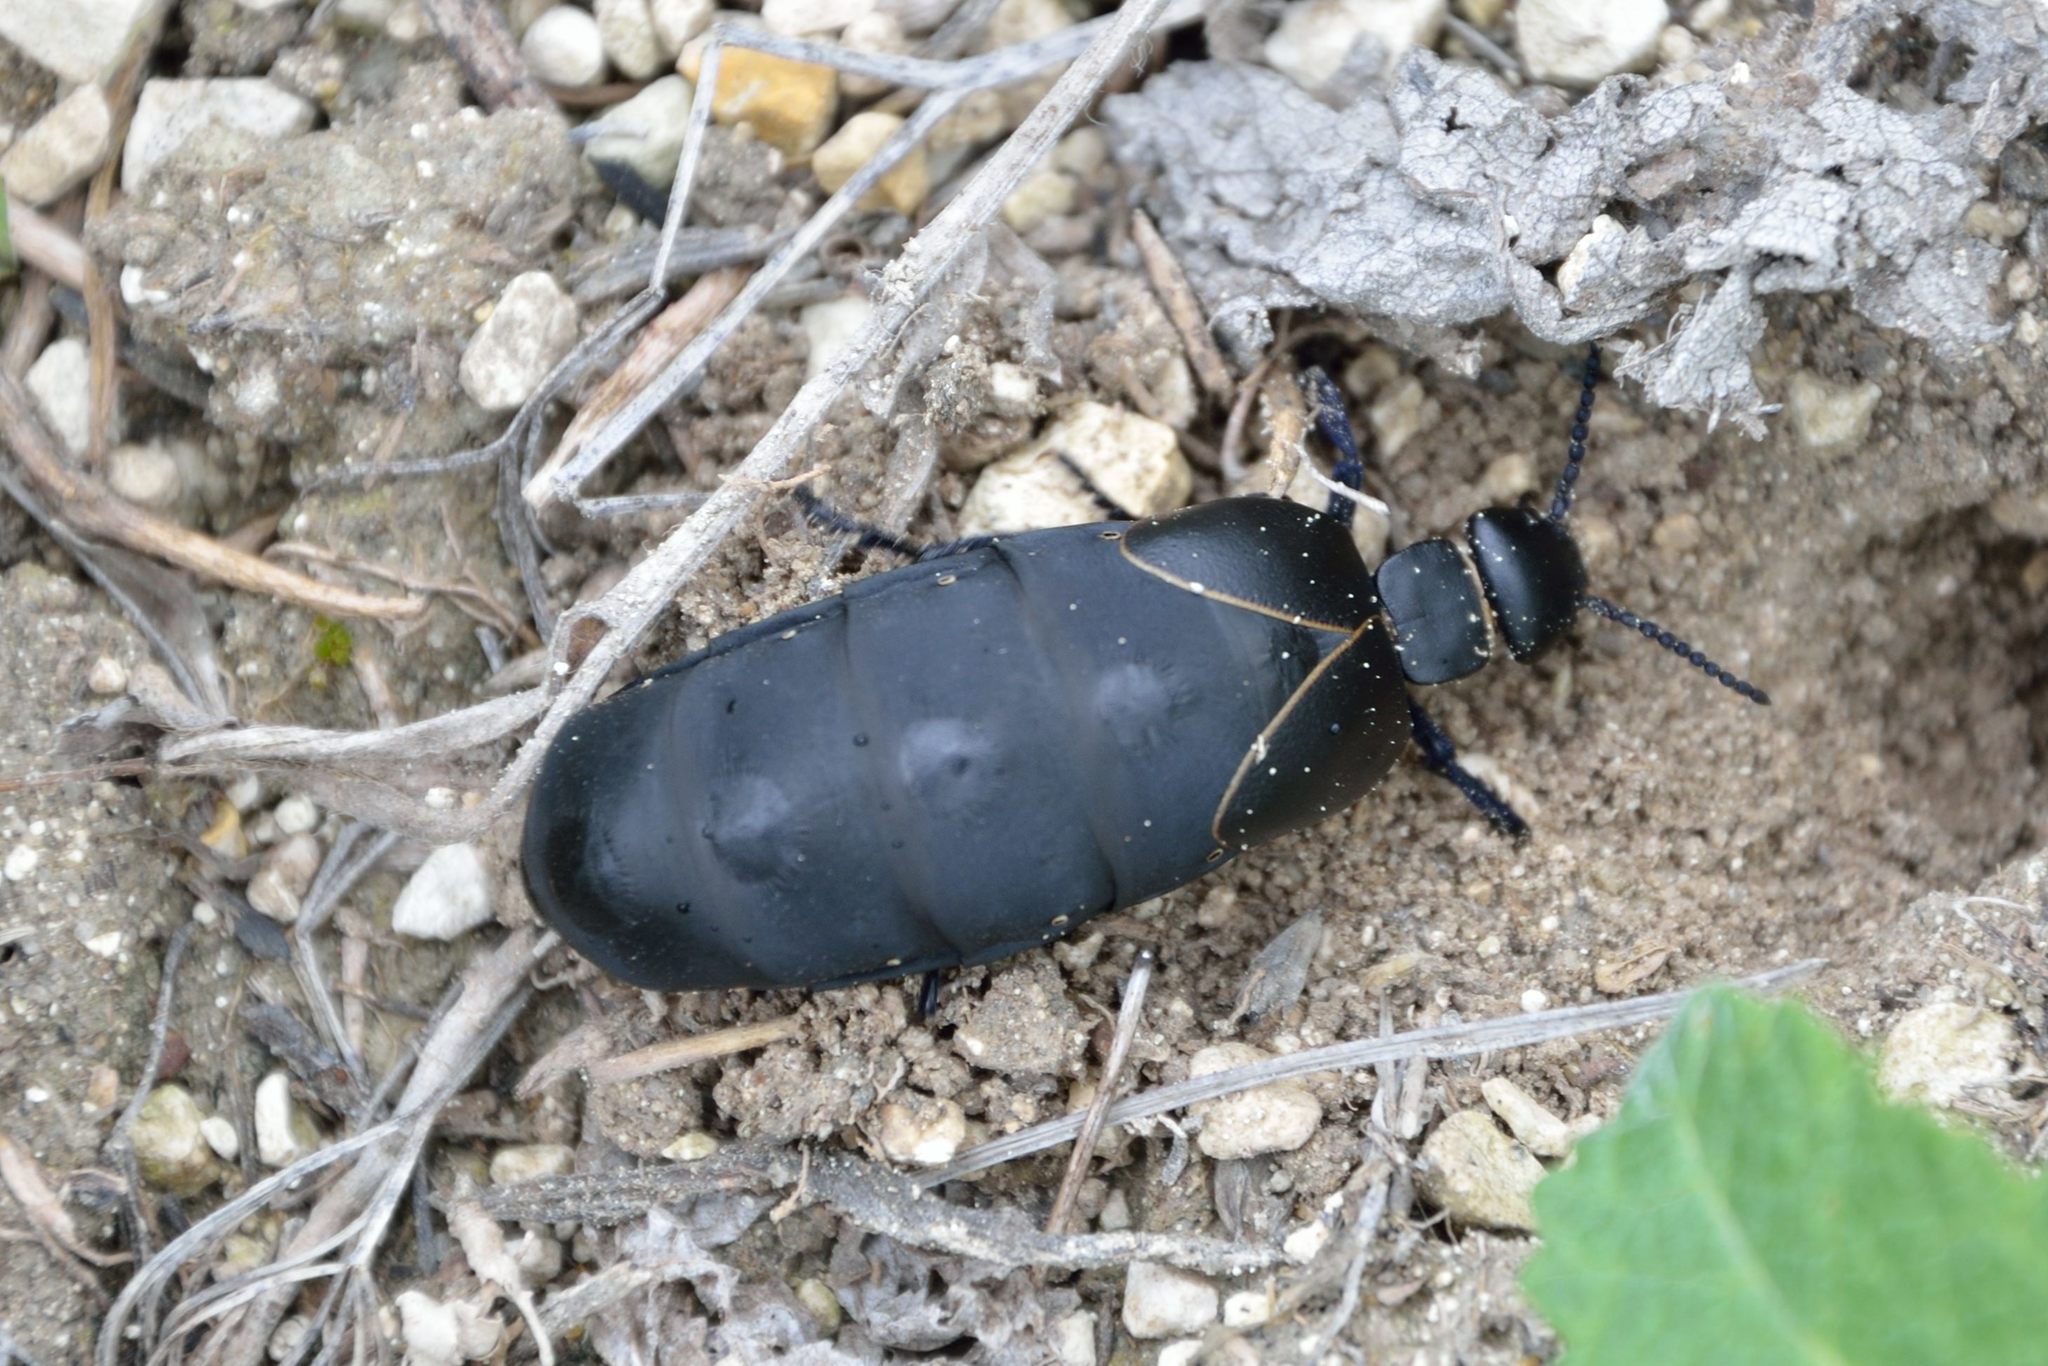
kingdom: Animalia
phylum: Arthropoda
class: Insecta
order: Coleoptera
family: Meloidae
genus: Meloe
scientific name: Meloe hungarus
